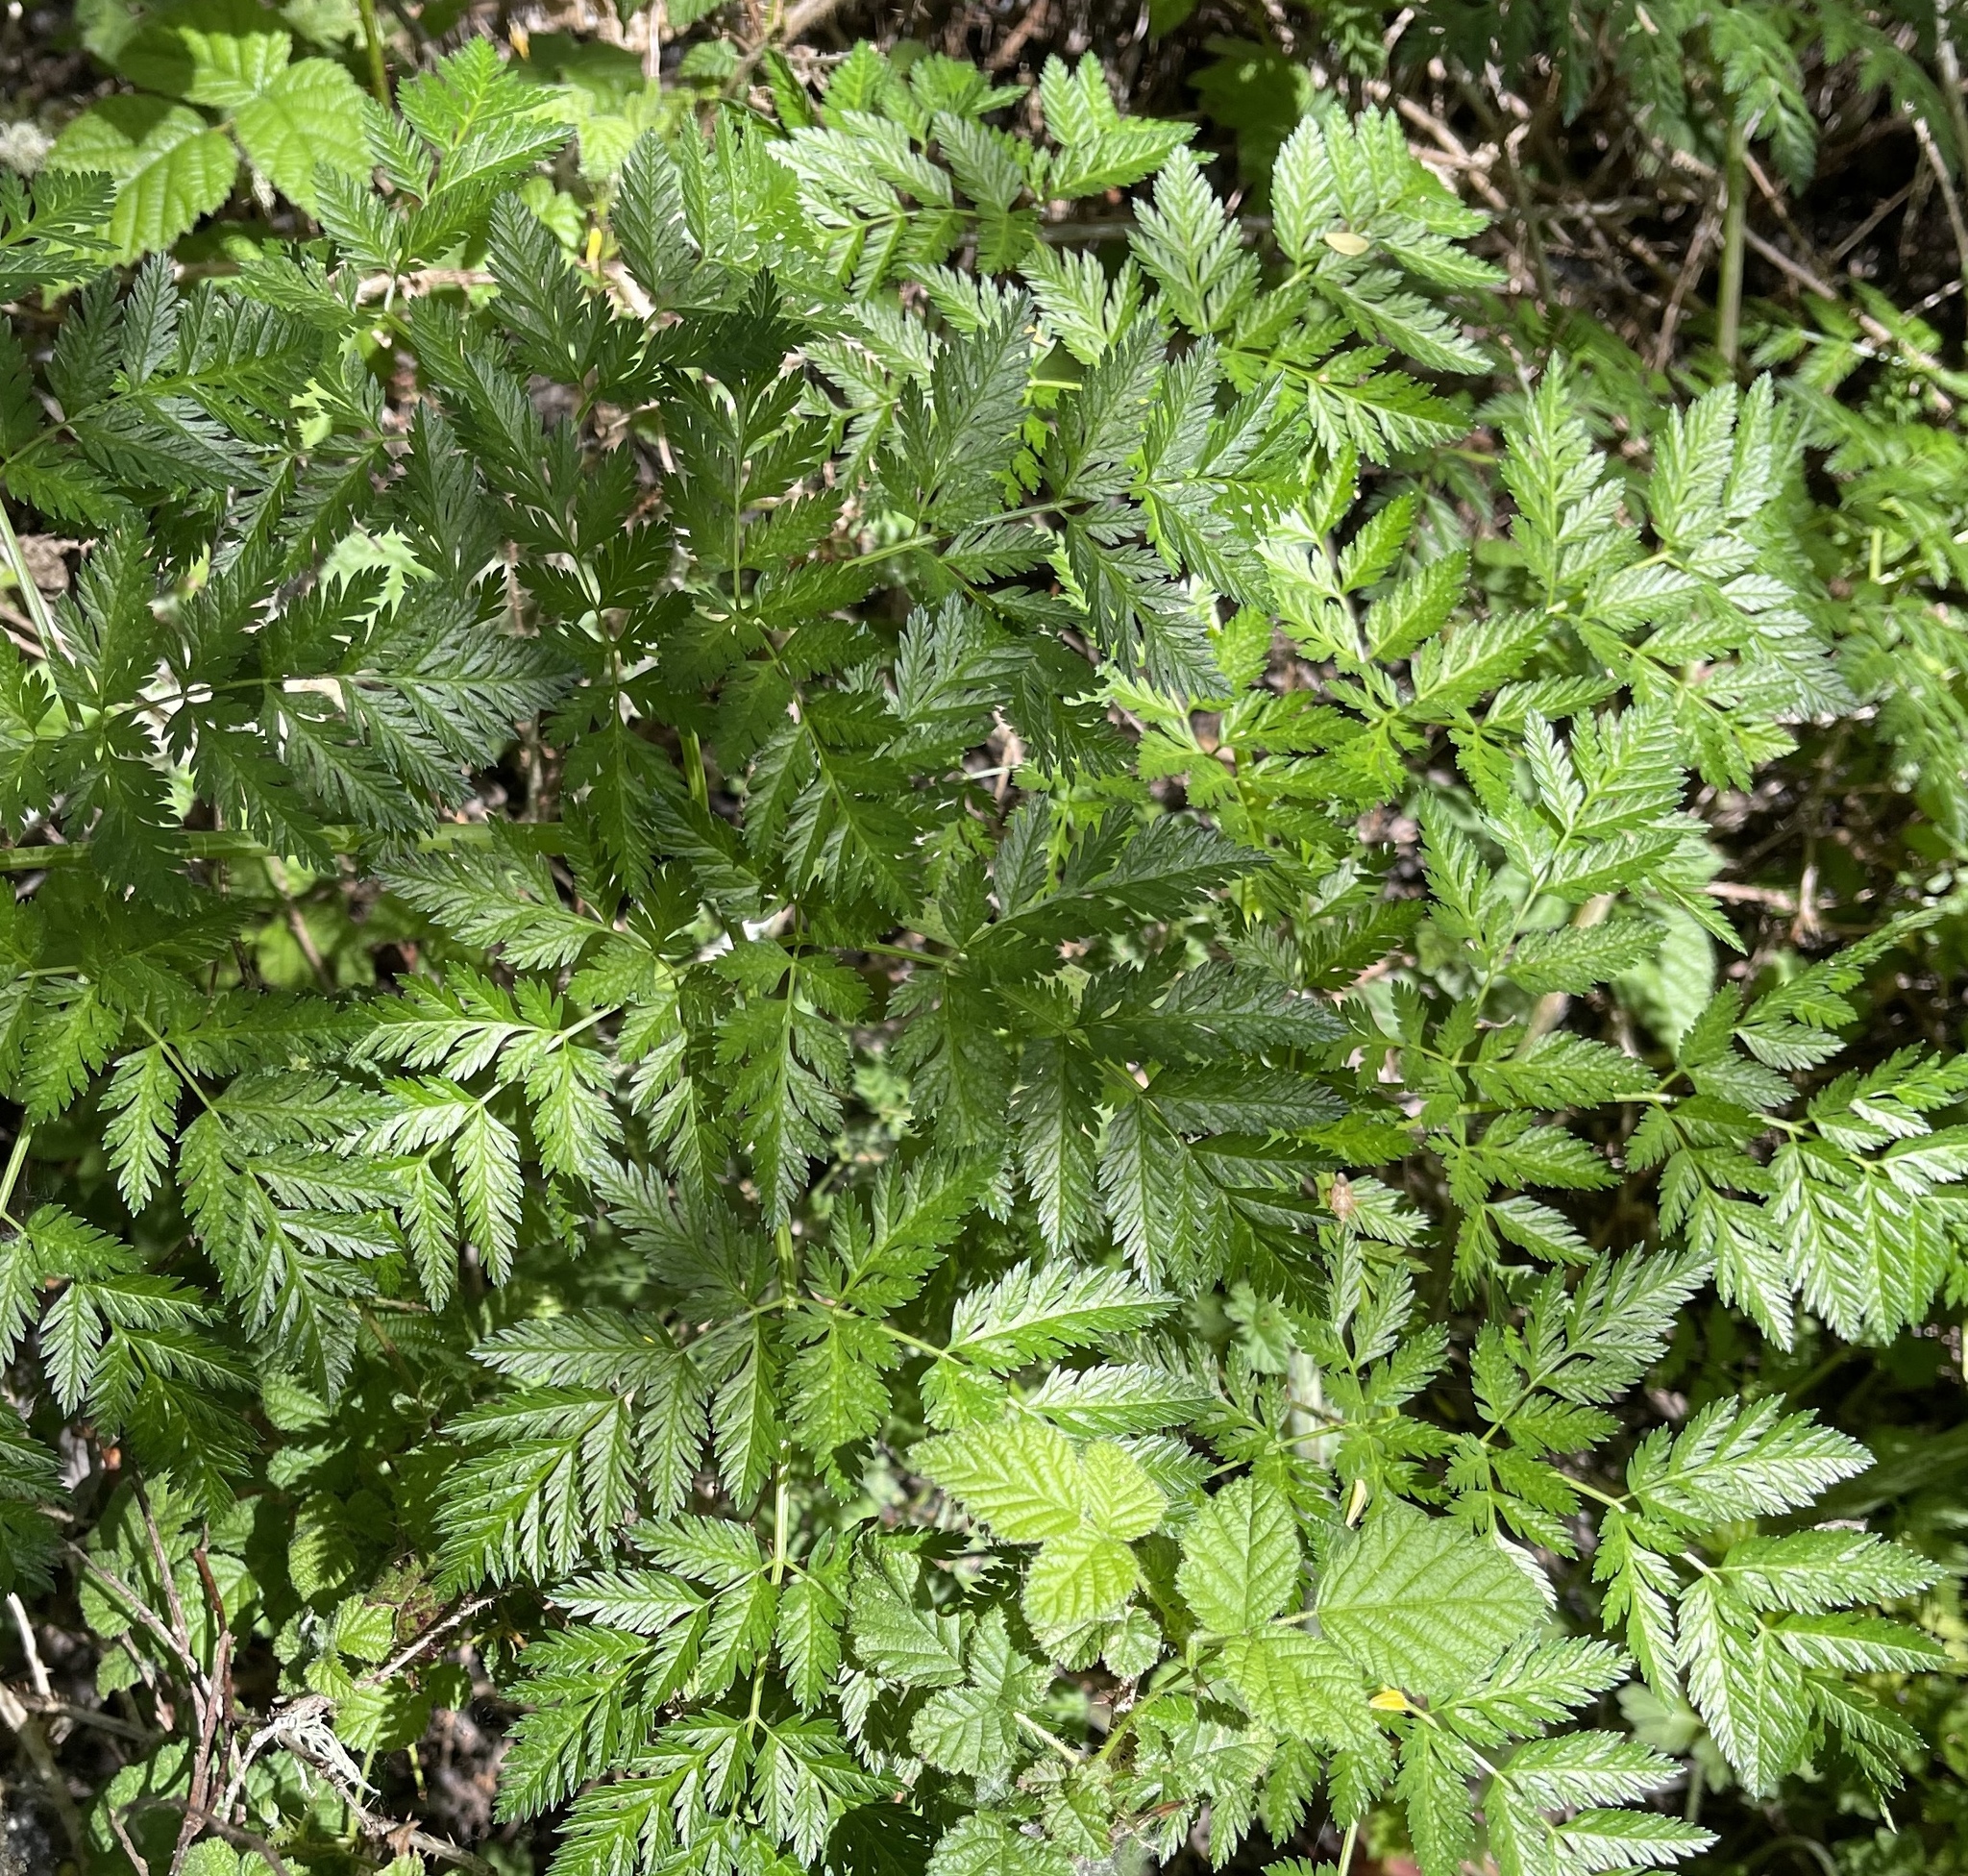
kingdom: Plantae
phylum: Tracheophyta
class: Magnoliopsida
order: Apiales
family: Apiaceae
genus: Conium
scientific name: Conium maculatum
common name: Hemlock
